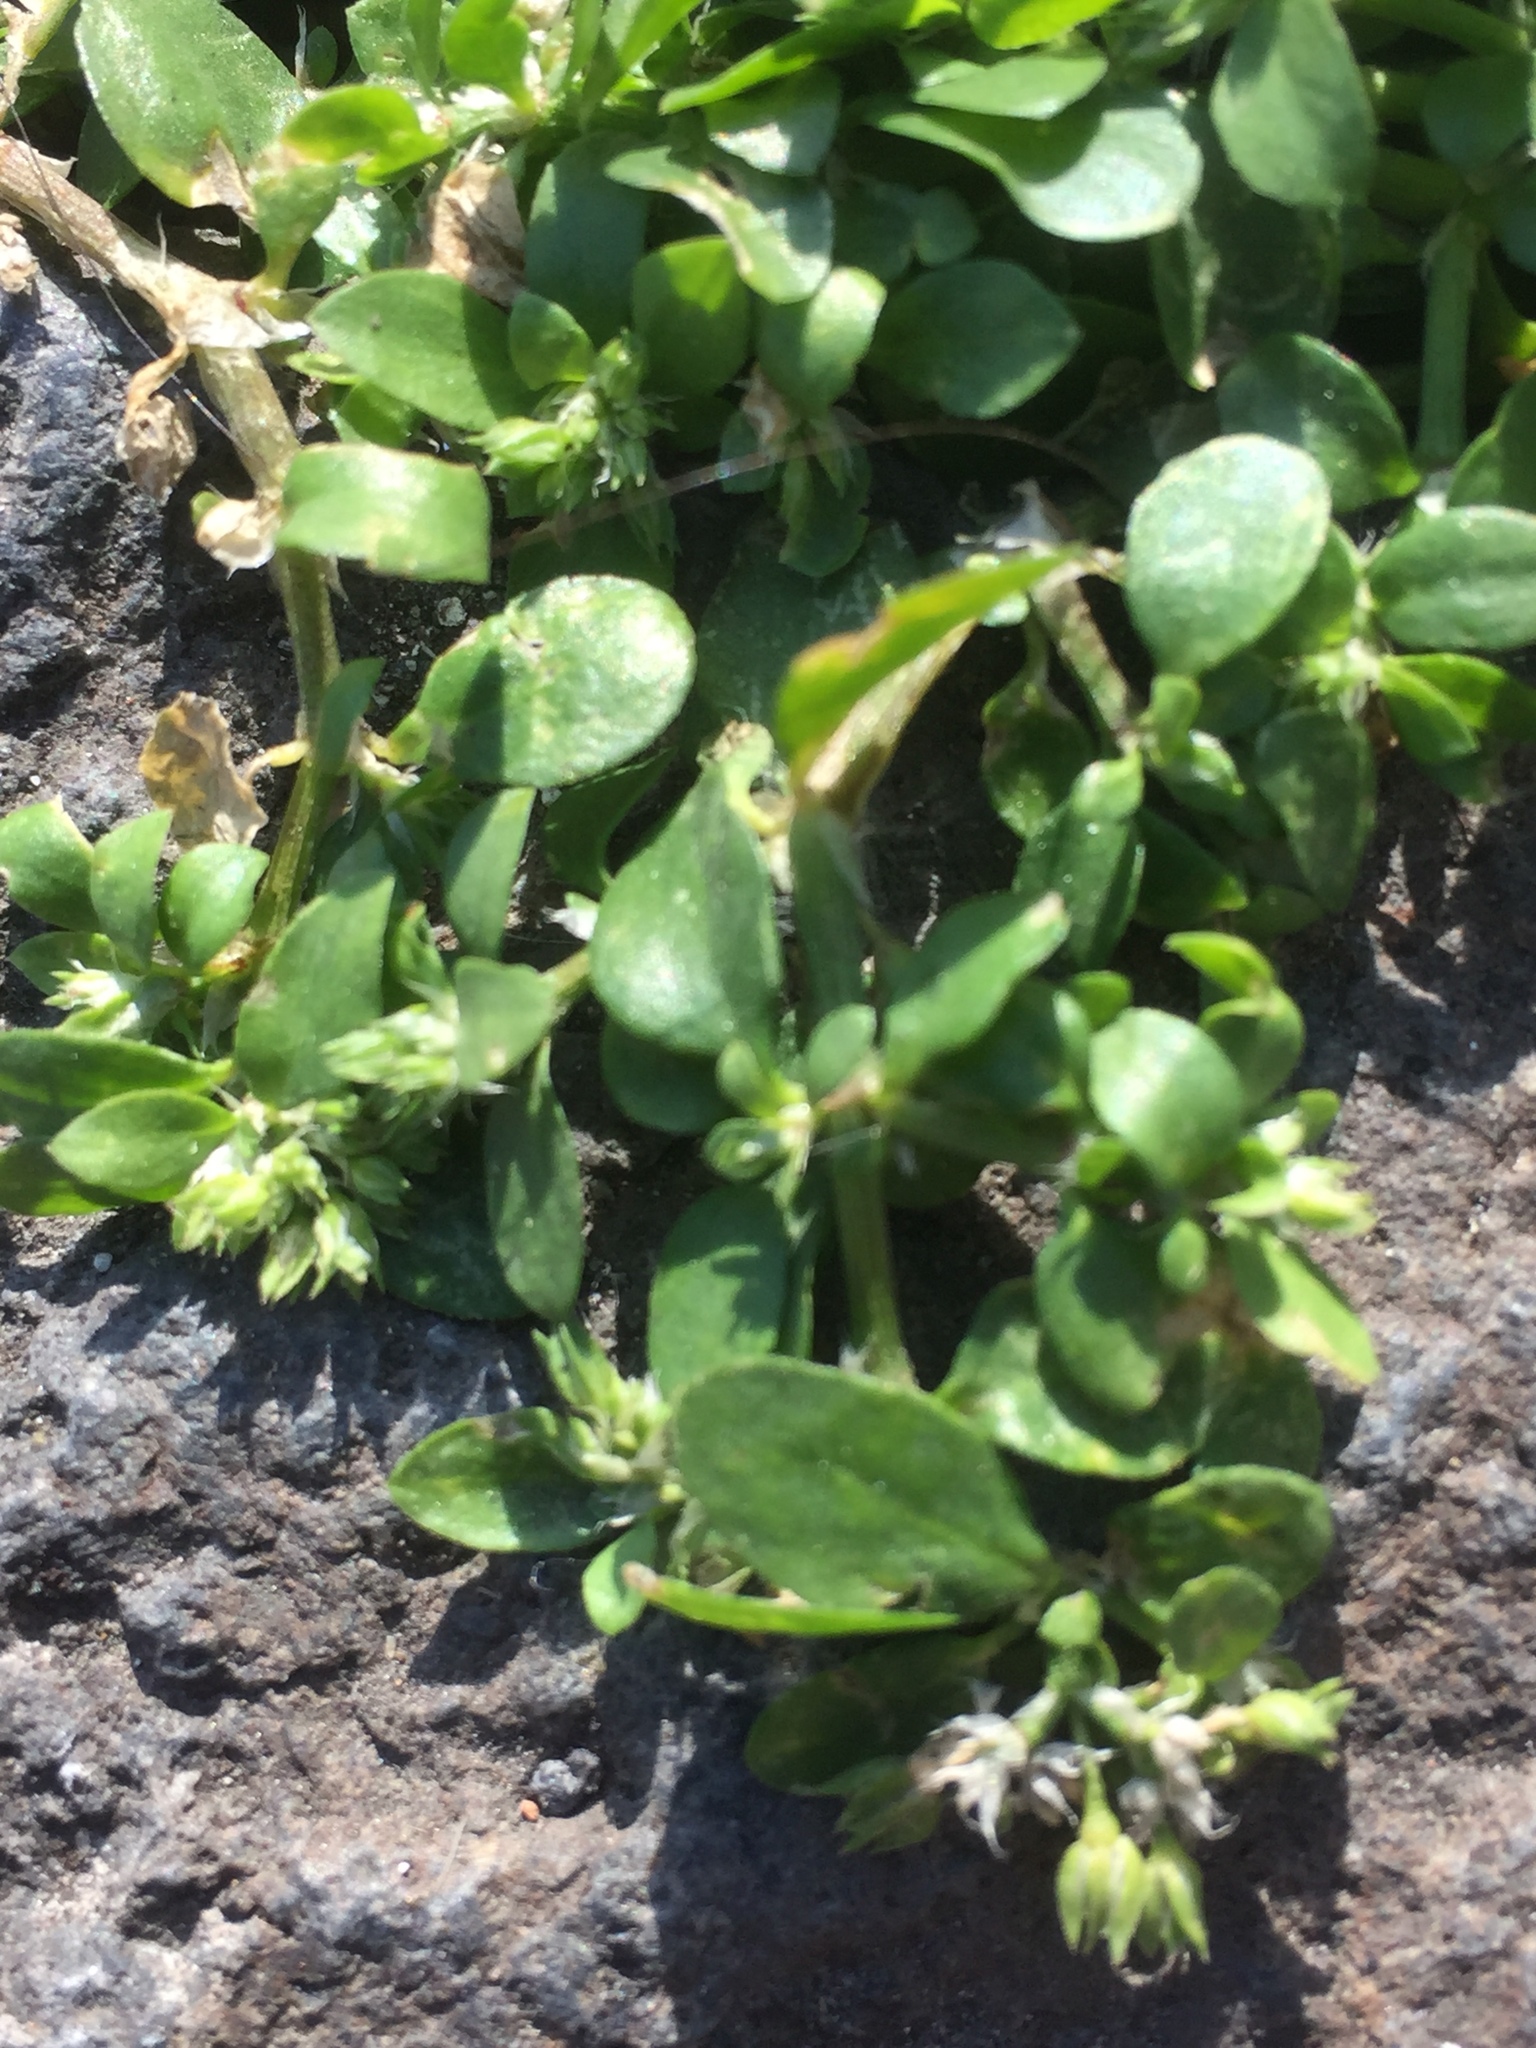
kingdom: Plantae
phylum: Tracheophyta
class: Magnoliopsida
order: Caryophyllales
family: Caryophyllaceae
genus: Polycarpon
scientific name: Polycarpon tetraphyllum
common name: Four-leaved all-seed
